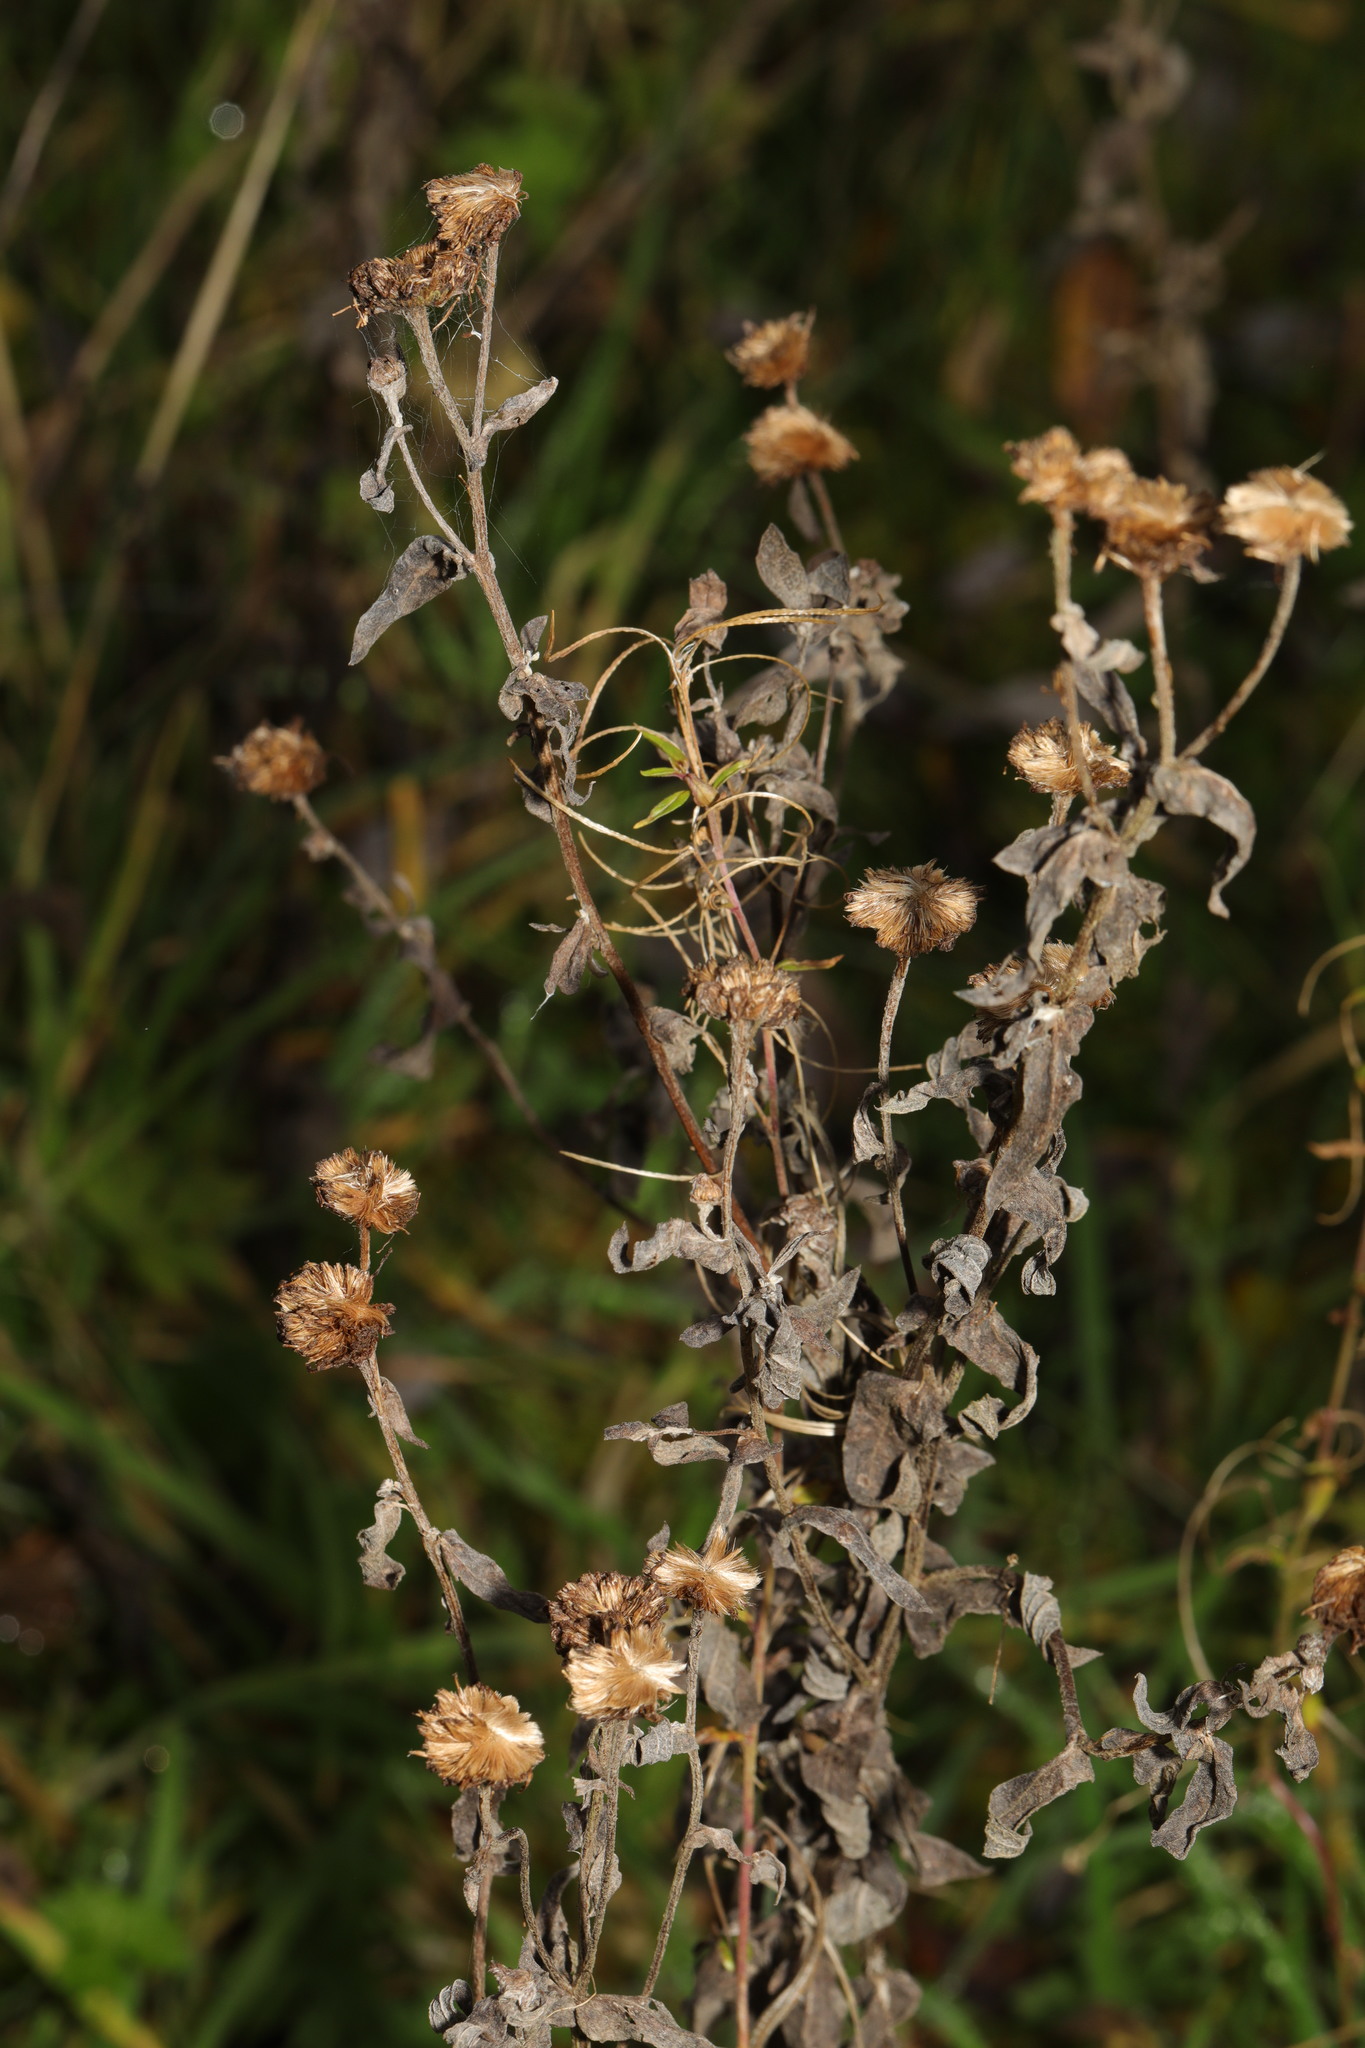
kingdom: Plantae
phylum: Tracheophyta
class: Magnoliopsida
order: Asterales
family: Asteraceae
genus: Pulicaria
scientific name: Pulicaria dysenterica
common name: Common fleabane
